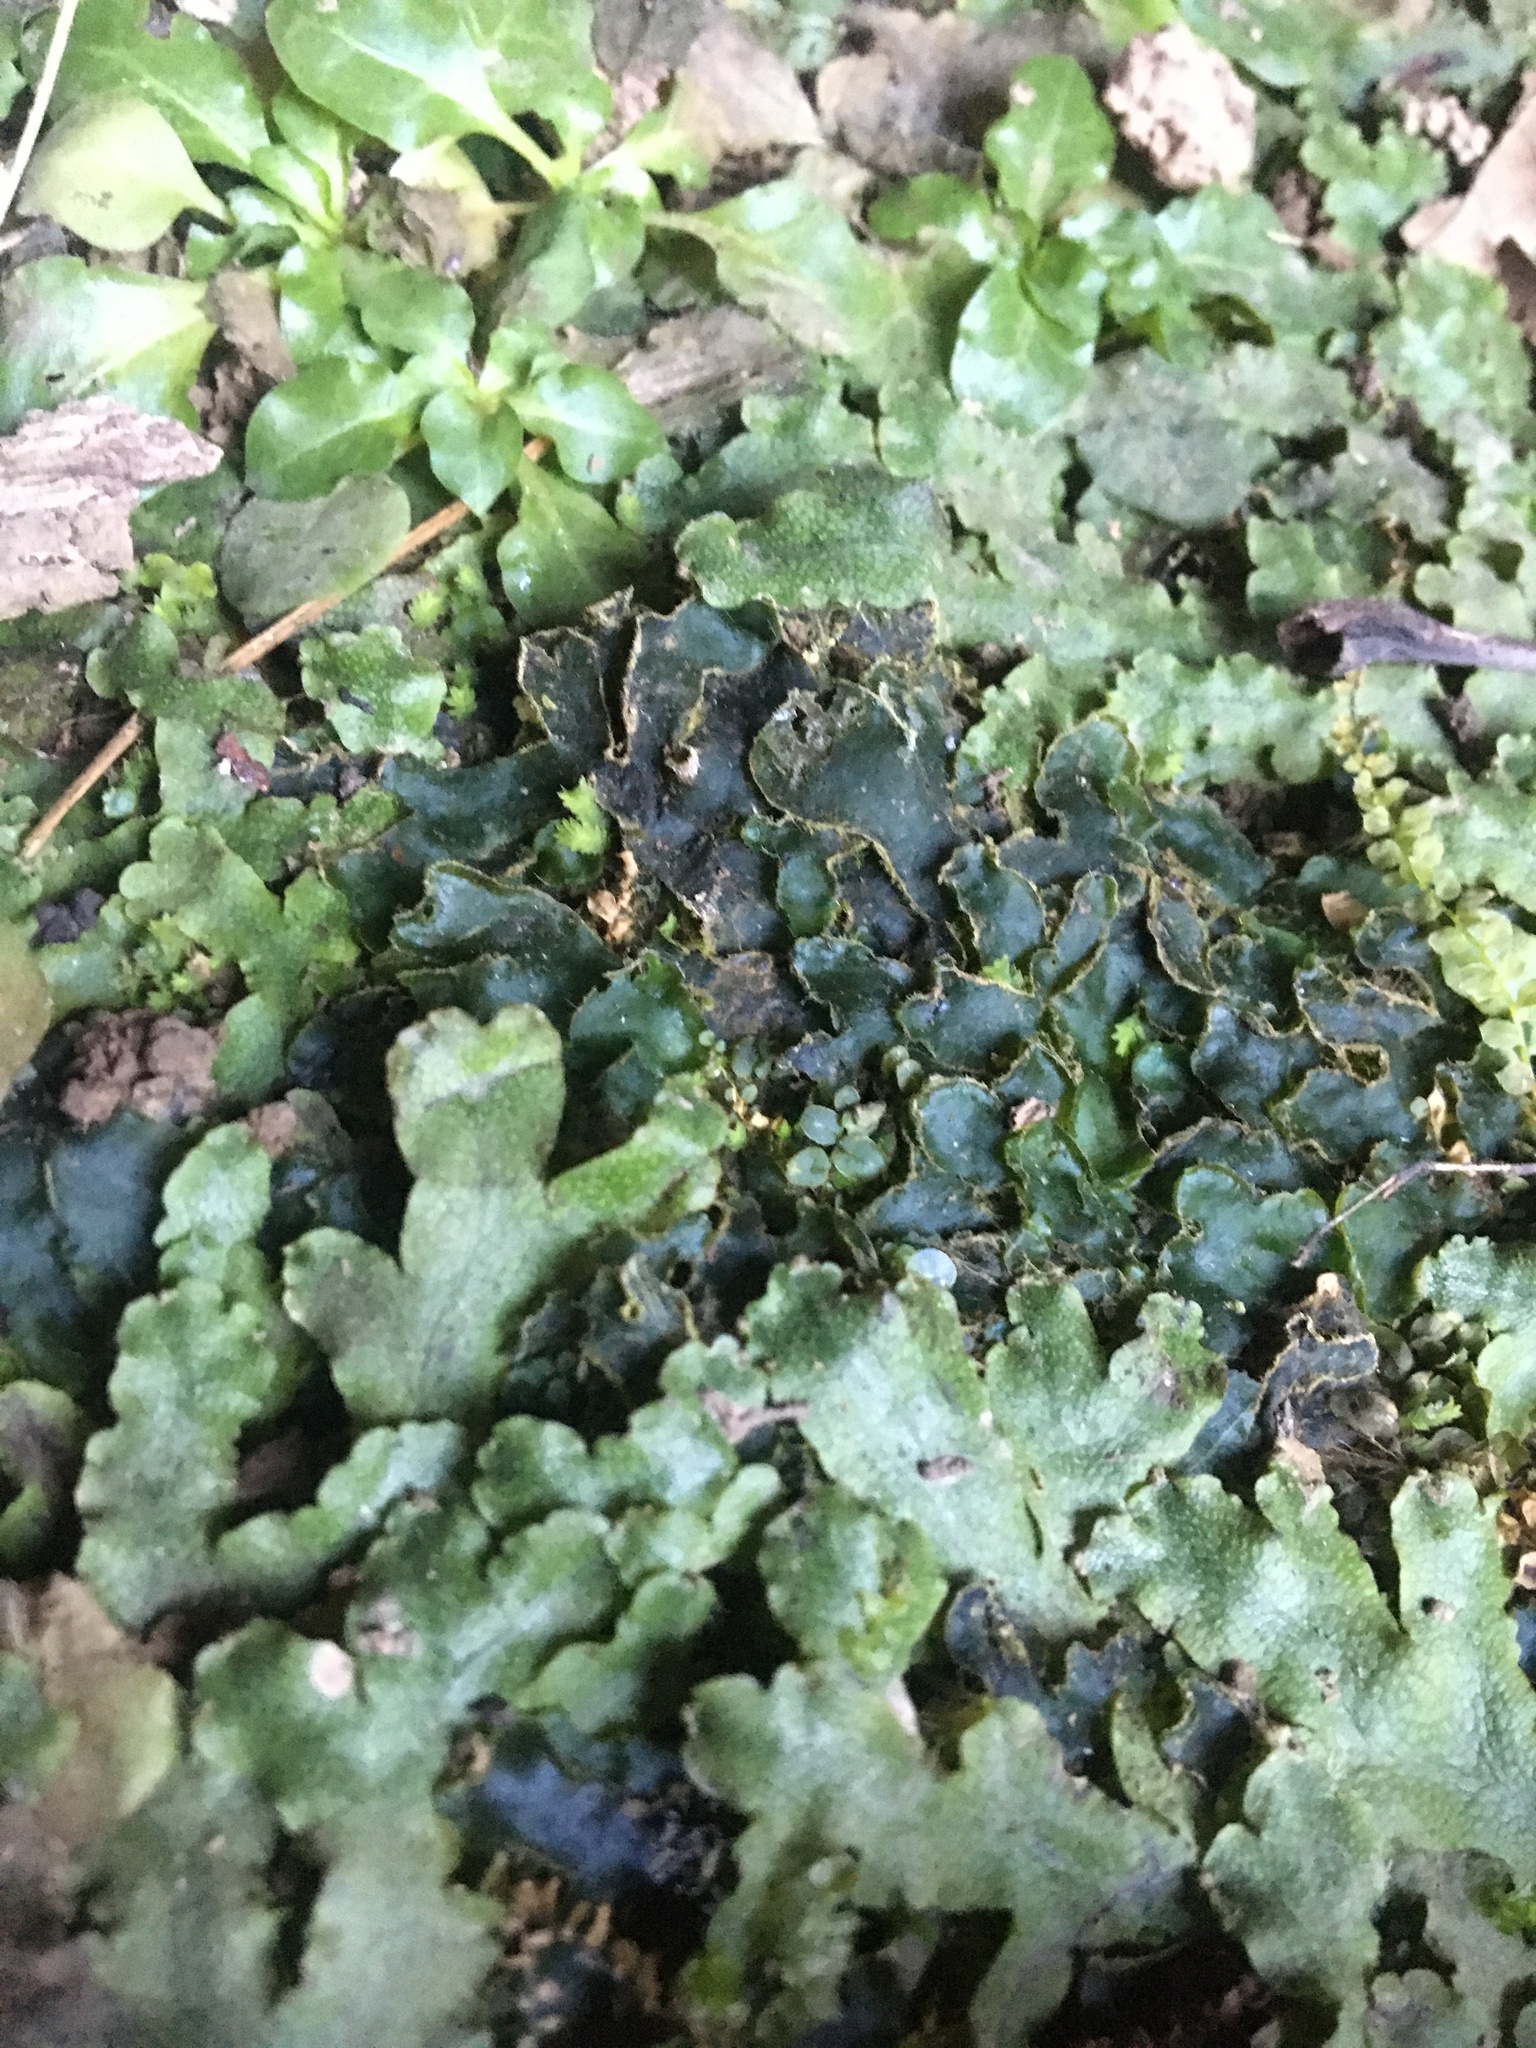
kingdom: Plantae
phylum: Marchantiophyta
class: Marchantiopsida
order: Marchantiales
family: Dumortieraceae
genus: Dumortiera
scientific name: Dumortiera hirsuta
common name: Dumortier's liverwort
